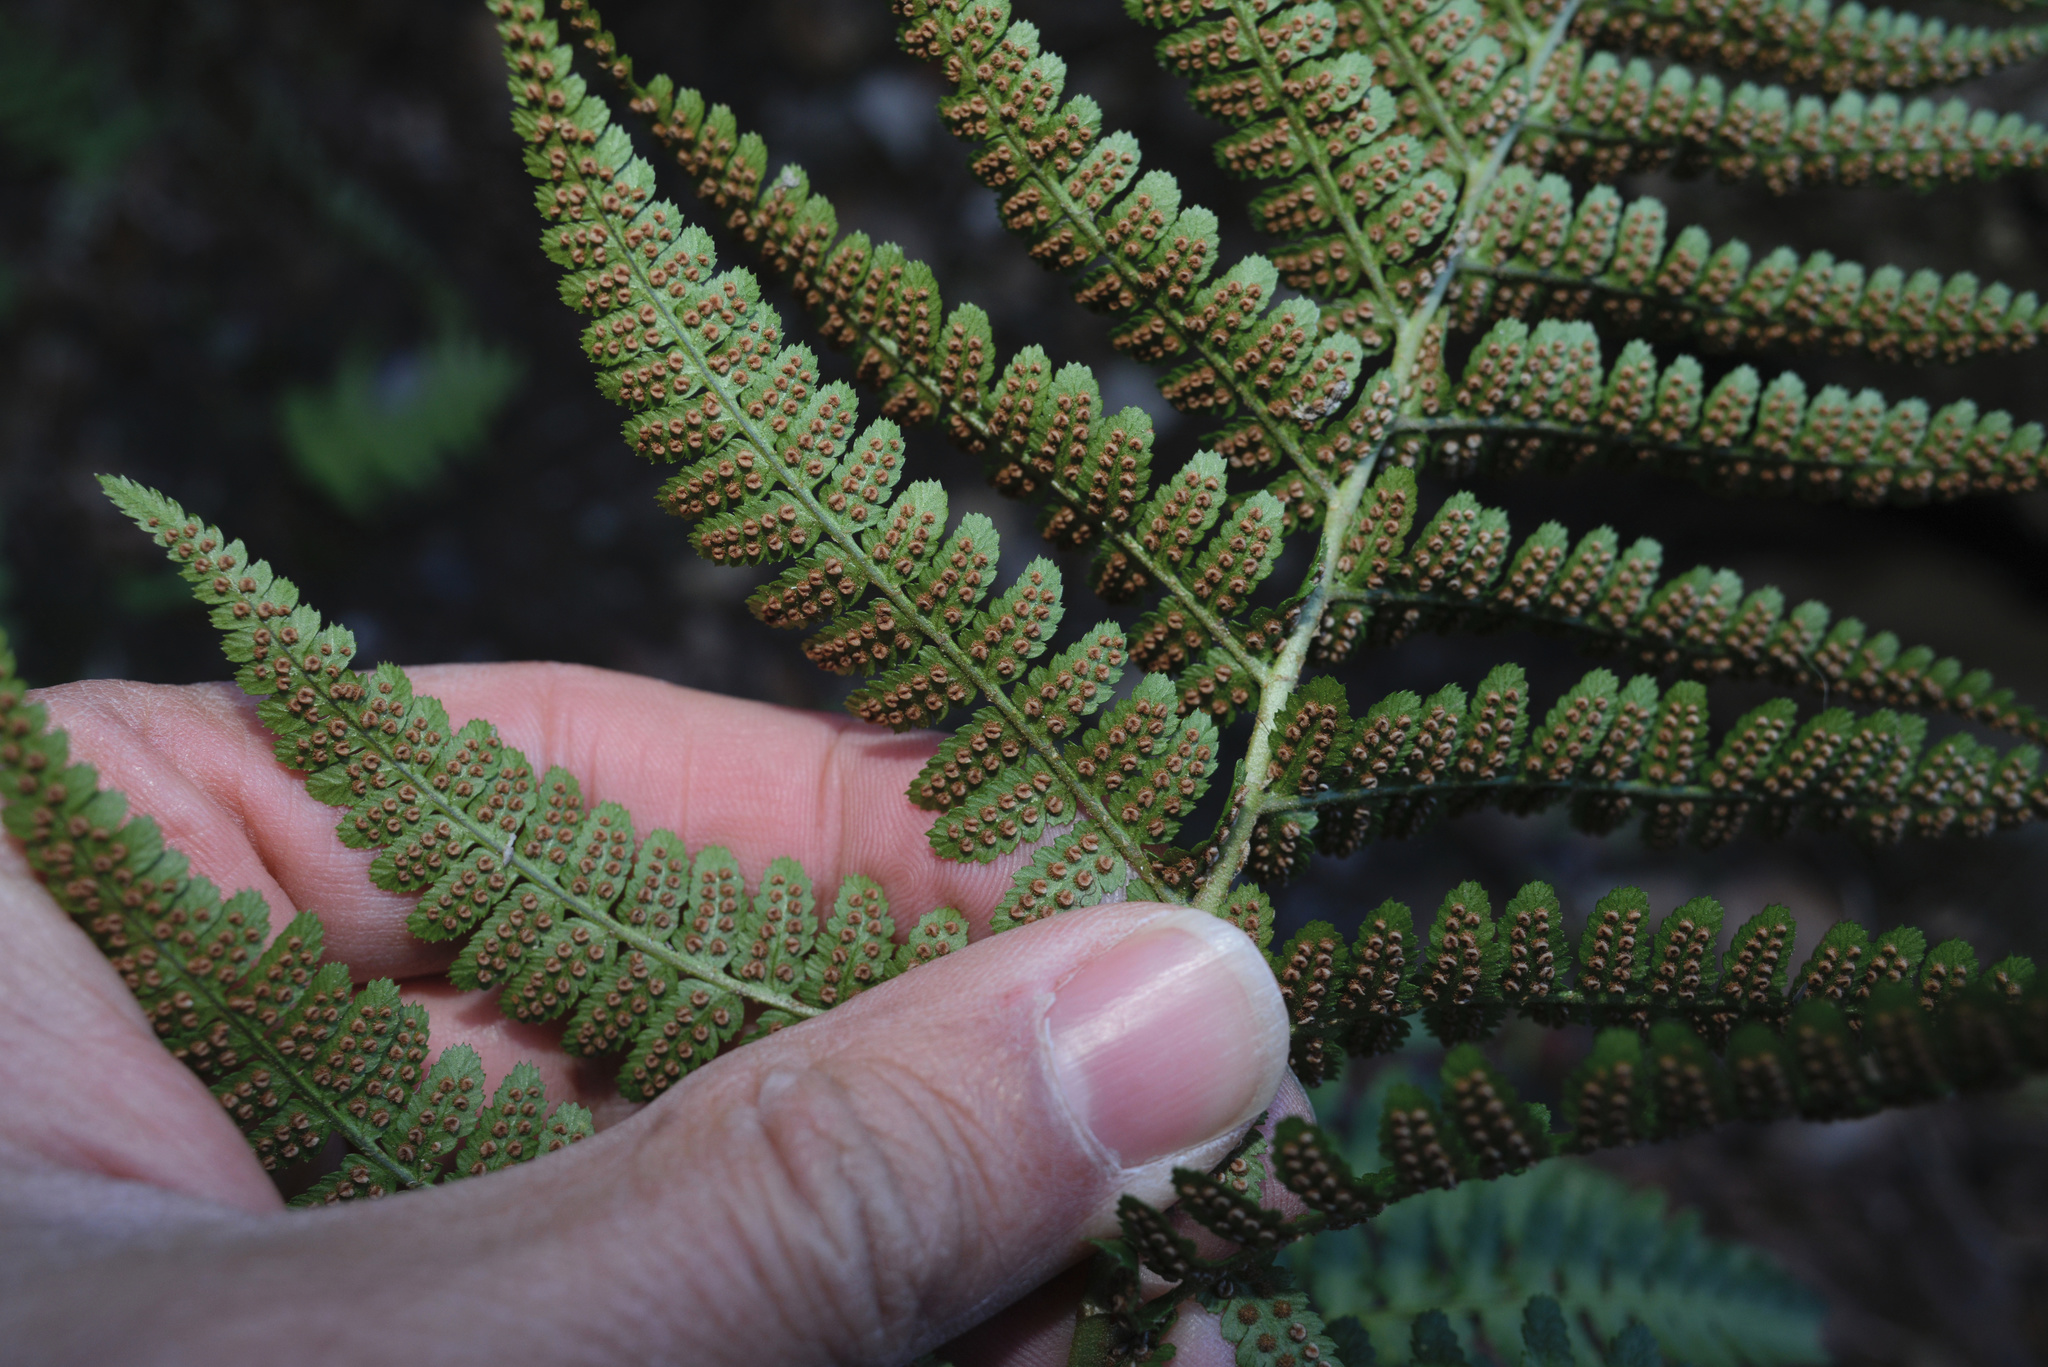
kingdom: Plantae
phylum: Tracheophyta
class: Polypodiopsida
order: Polypodiales
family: Dryopteridaceae
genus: Dryopteris
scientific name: Dryopteris arguta
